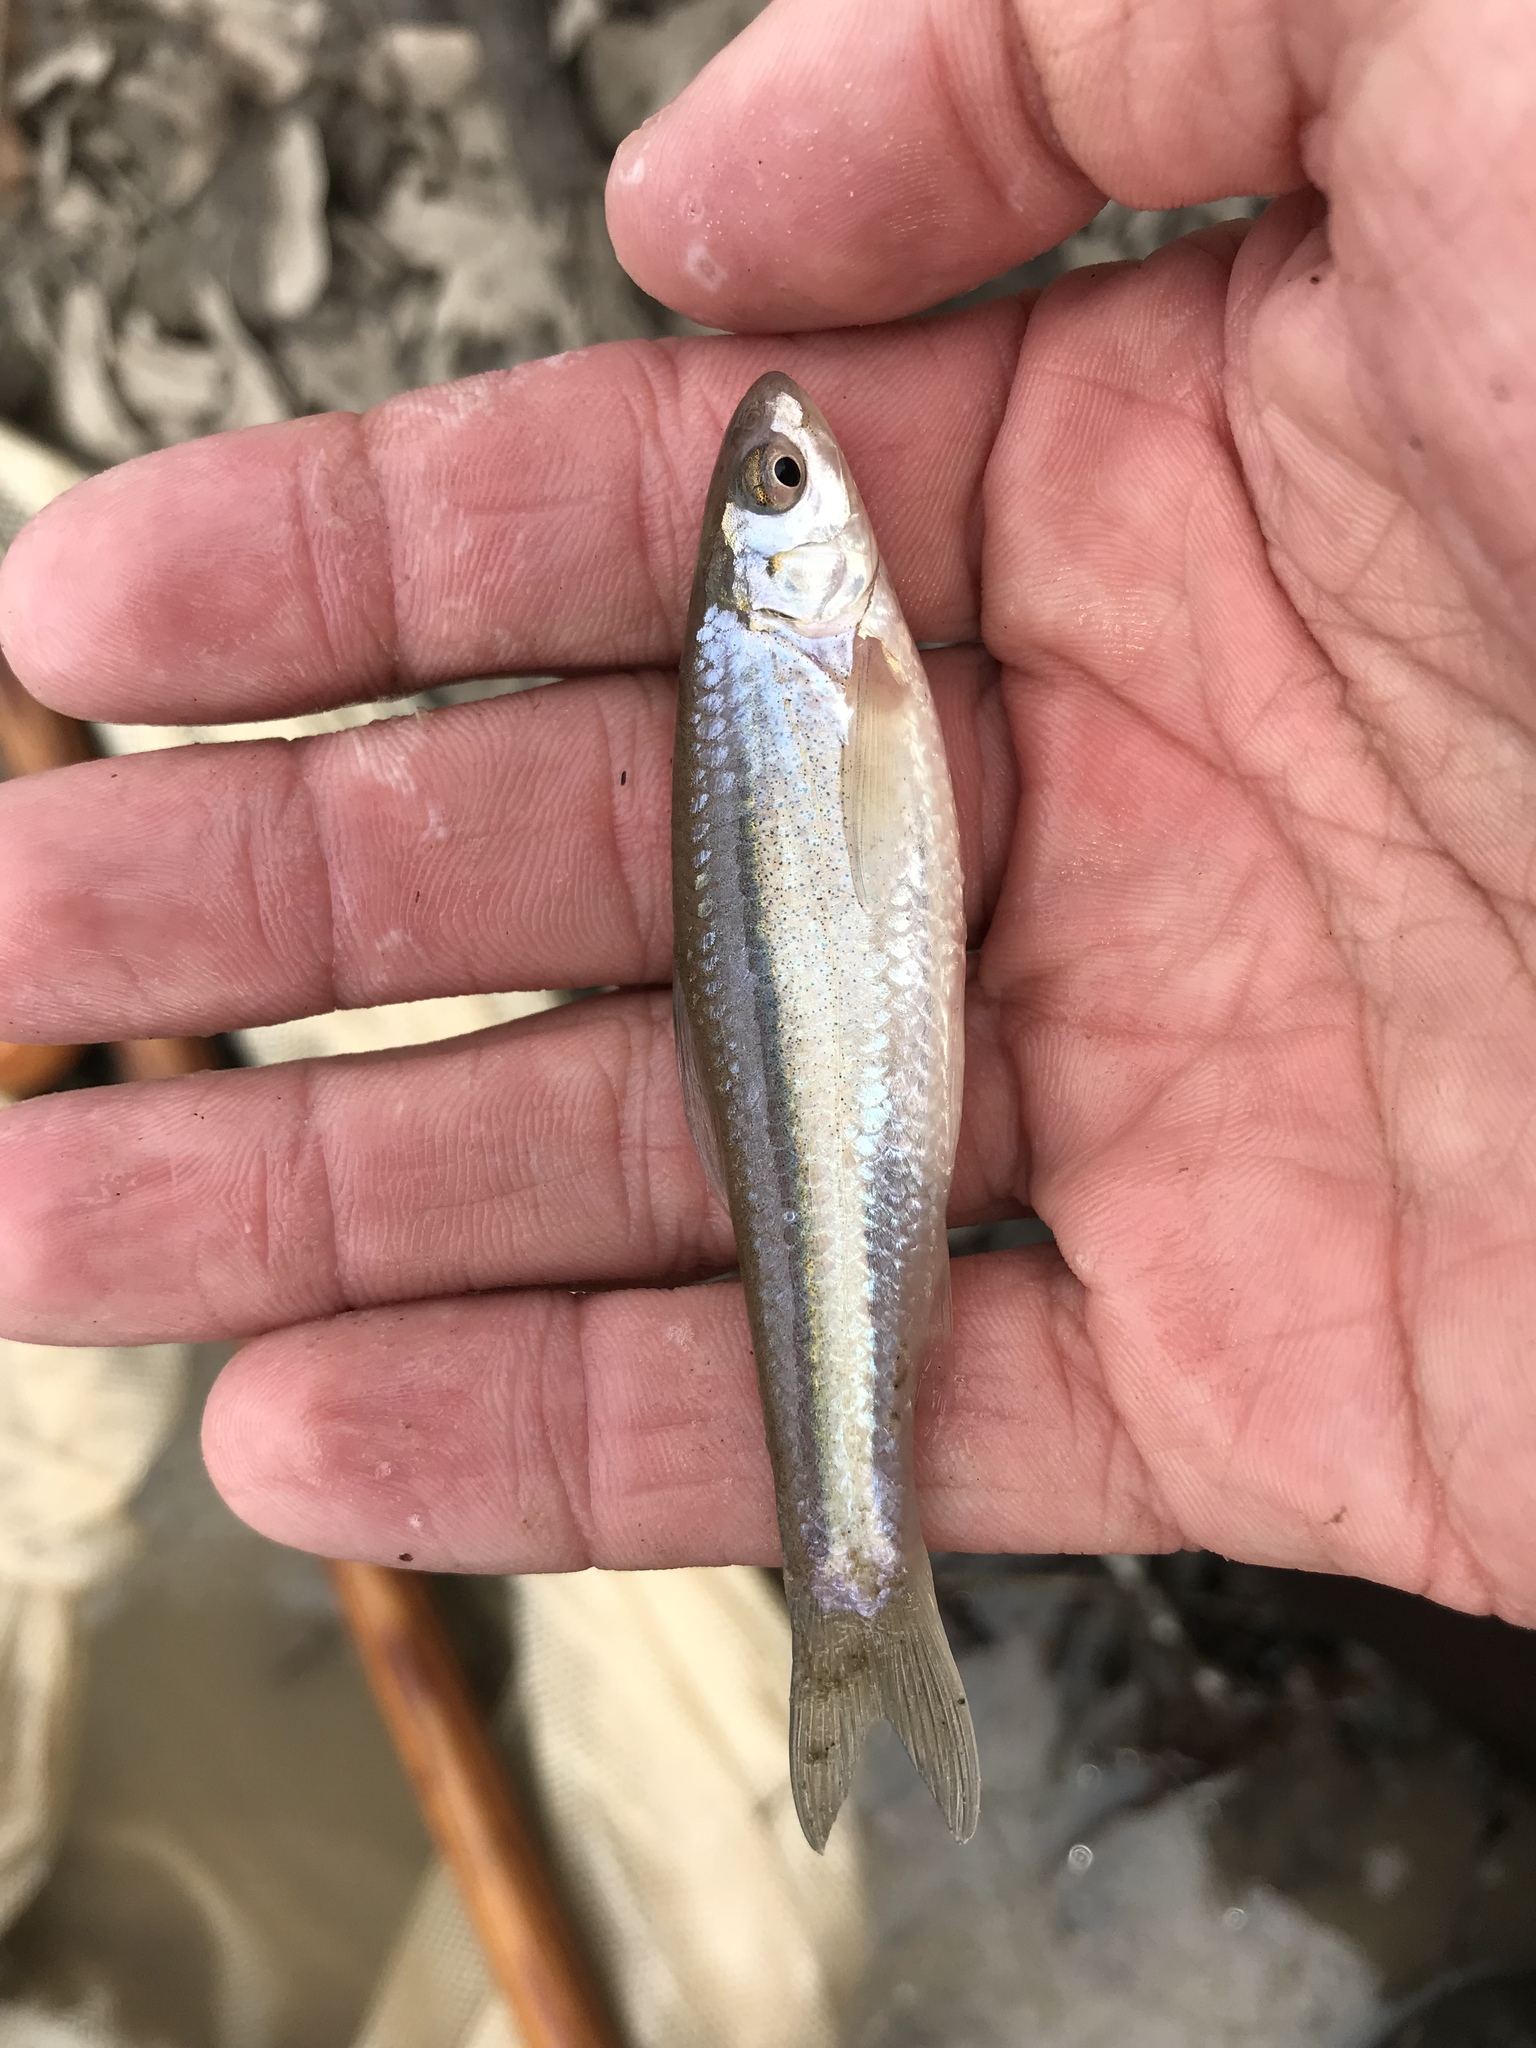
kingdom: Animalia
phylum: Chordata
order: Cypriniformes
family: Cyprinidae
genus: Hybognathus
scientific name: Hybognathus nuchalis
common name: Mississippi silvery minnow
